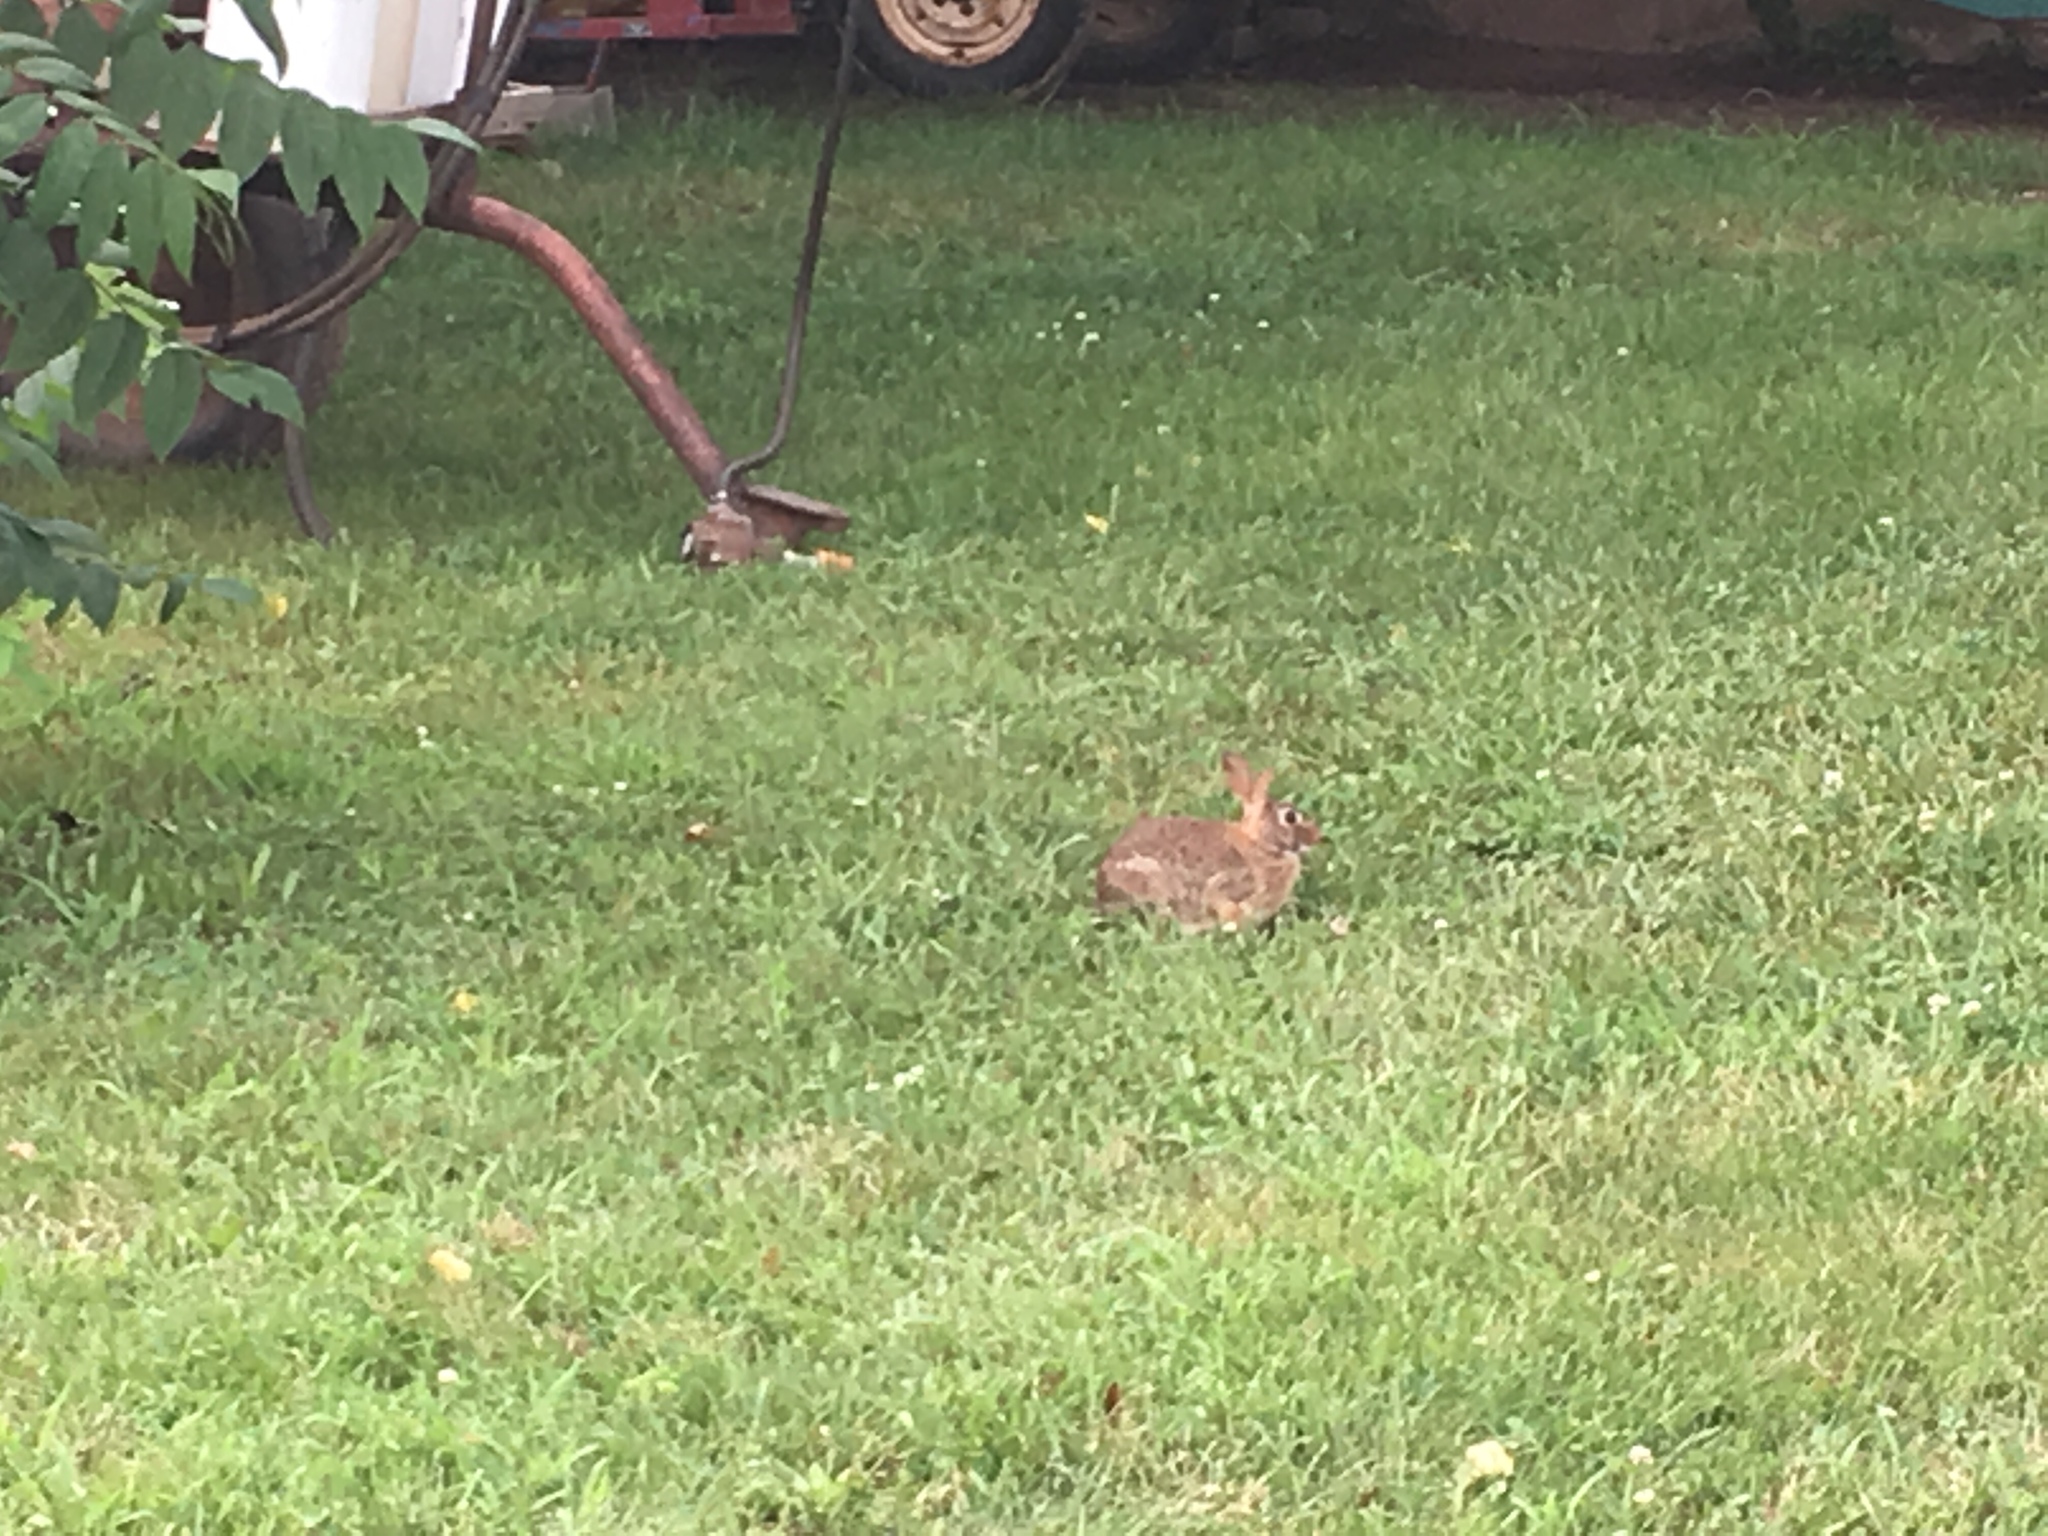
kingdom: Animalia
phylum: Chordata
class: Mammalia
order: Lagomorpha
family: Leporidae
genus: Sylvilagus
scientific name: Sylvilagus floridanus
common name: Eastern cottontail
